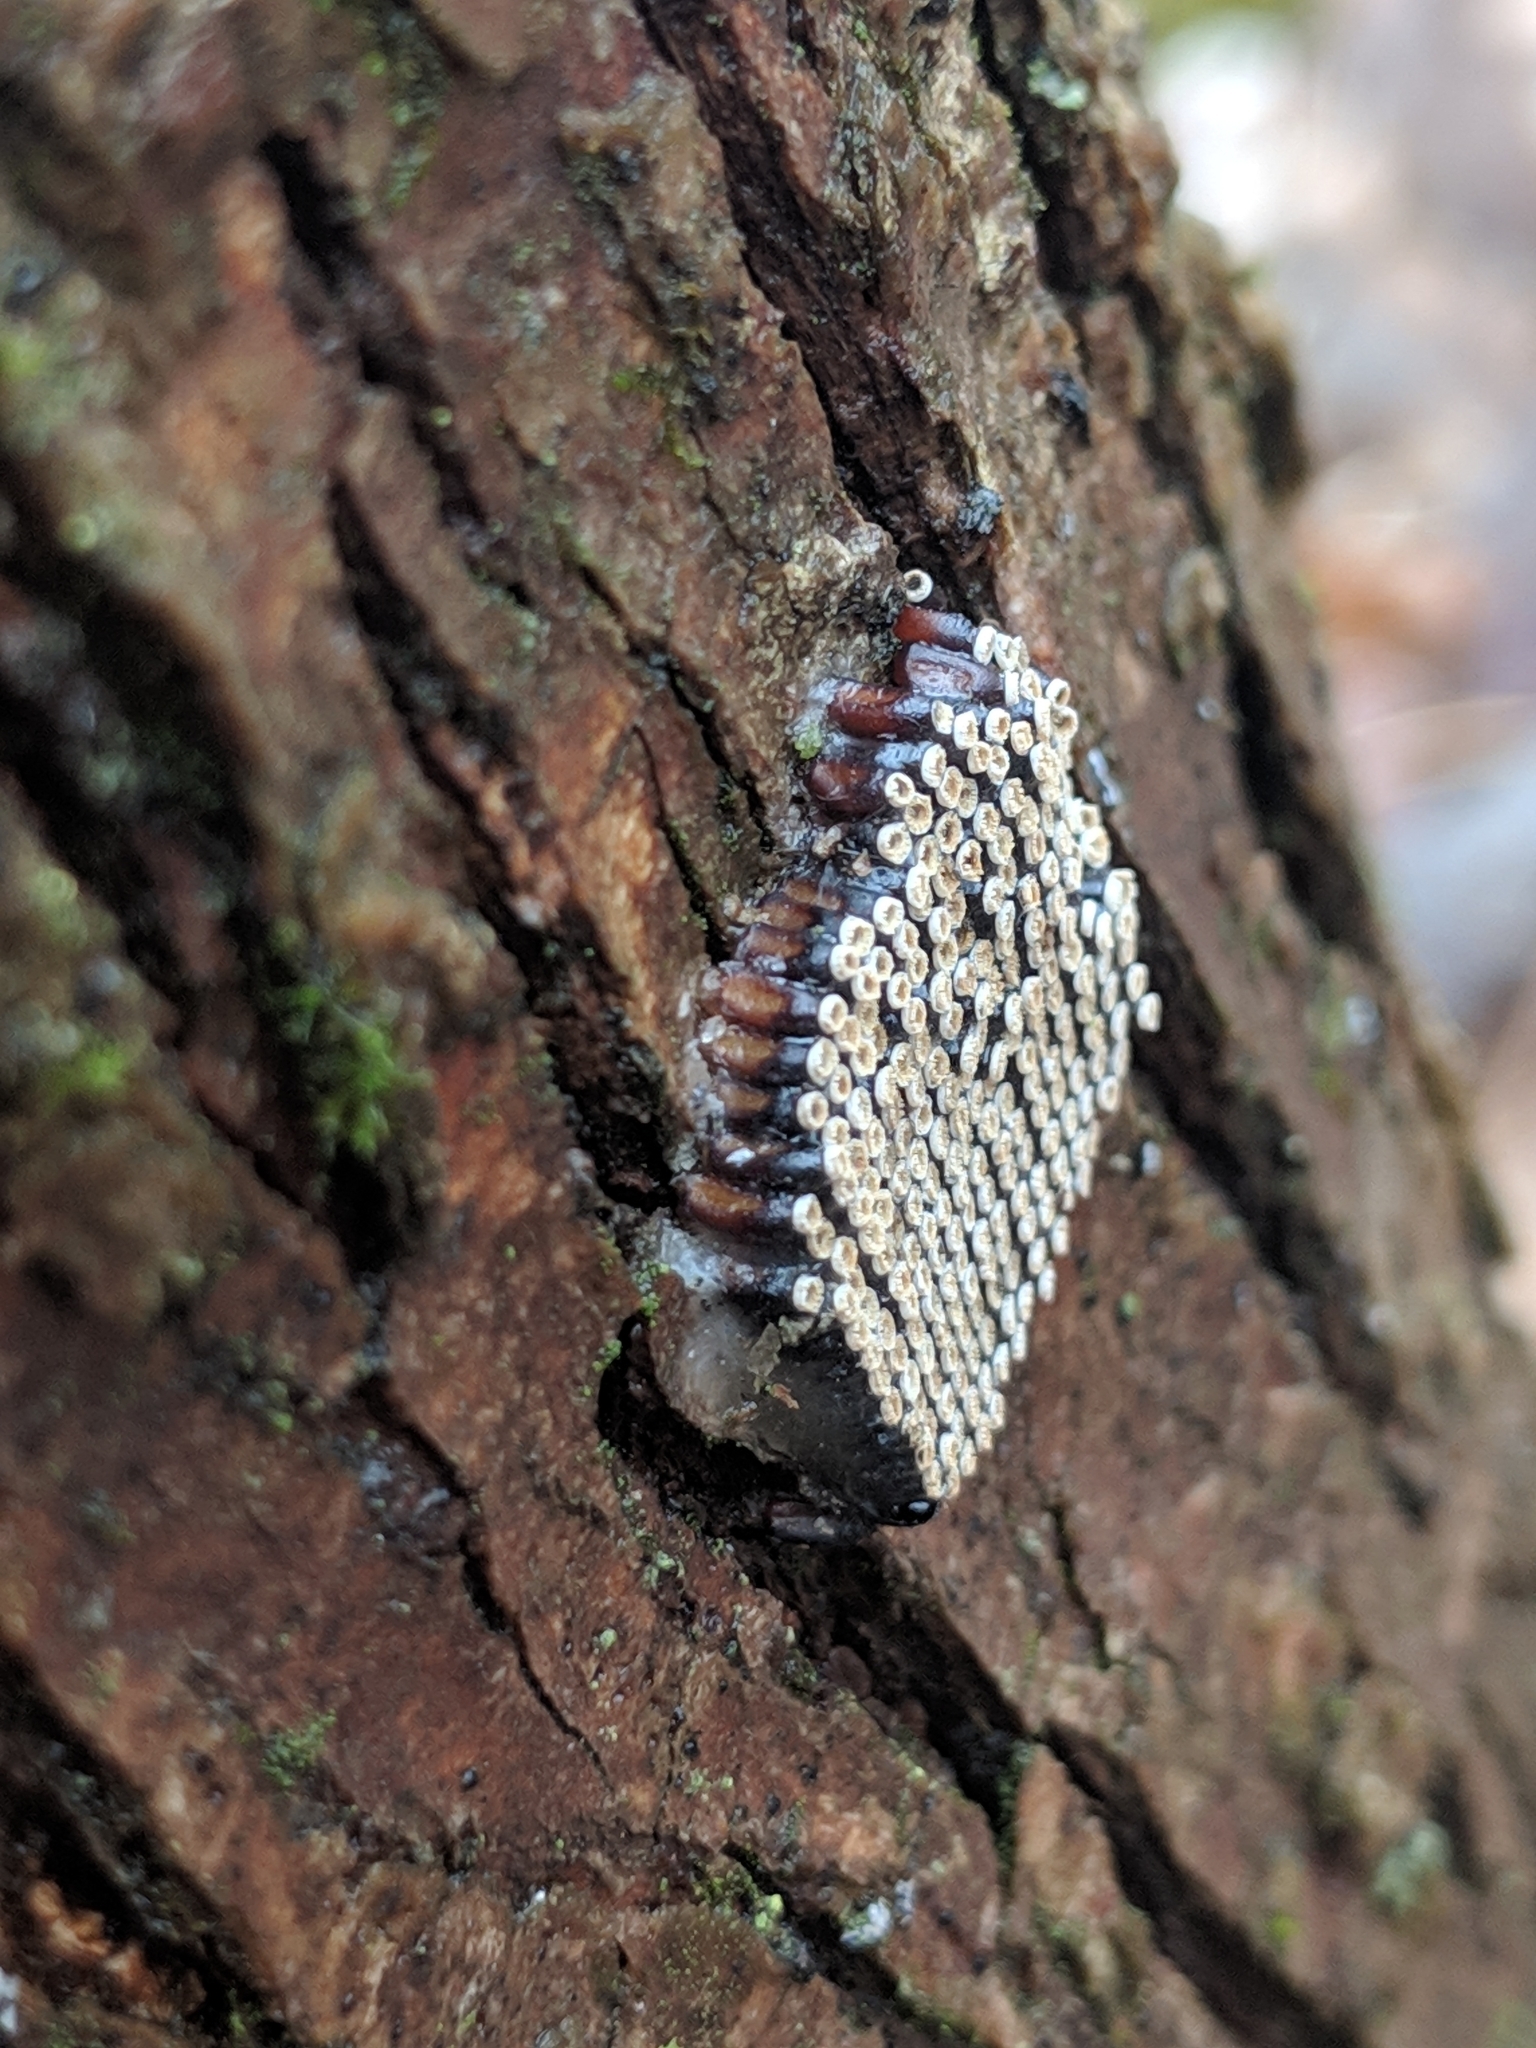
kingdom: Animalia
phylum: Arthropoda
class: Insecta
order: Hemiptera
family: Reduviidae
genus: Arilus
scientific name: Arilus cristatus
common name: North american wheel bug
